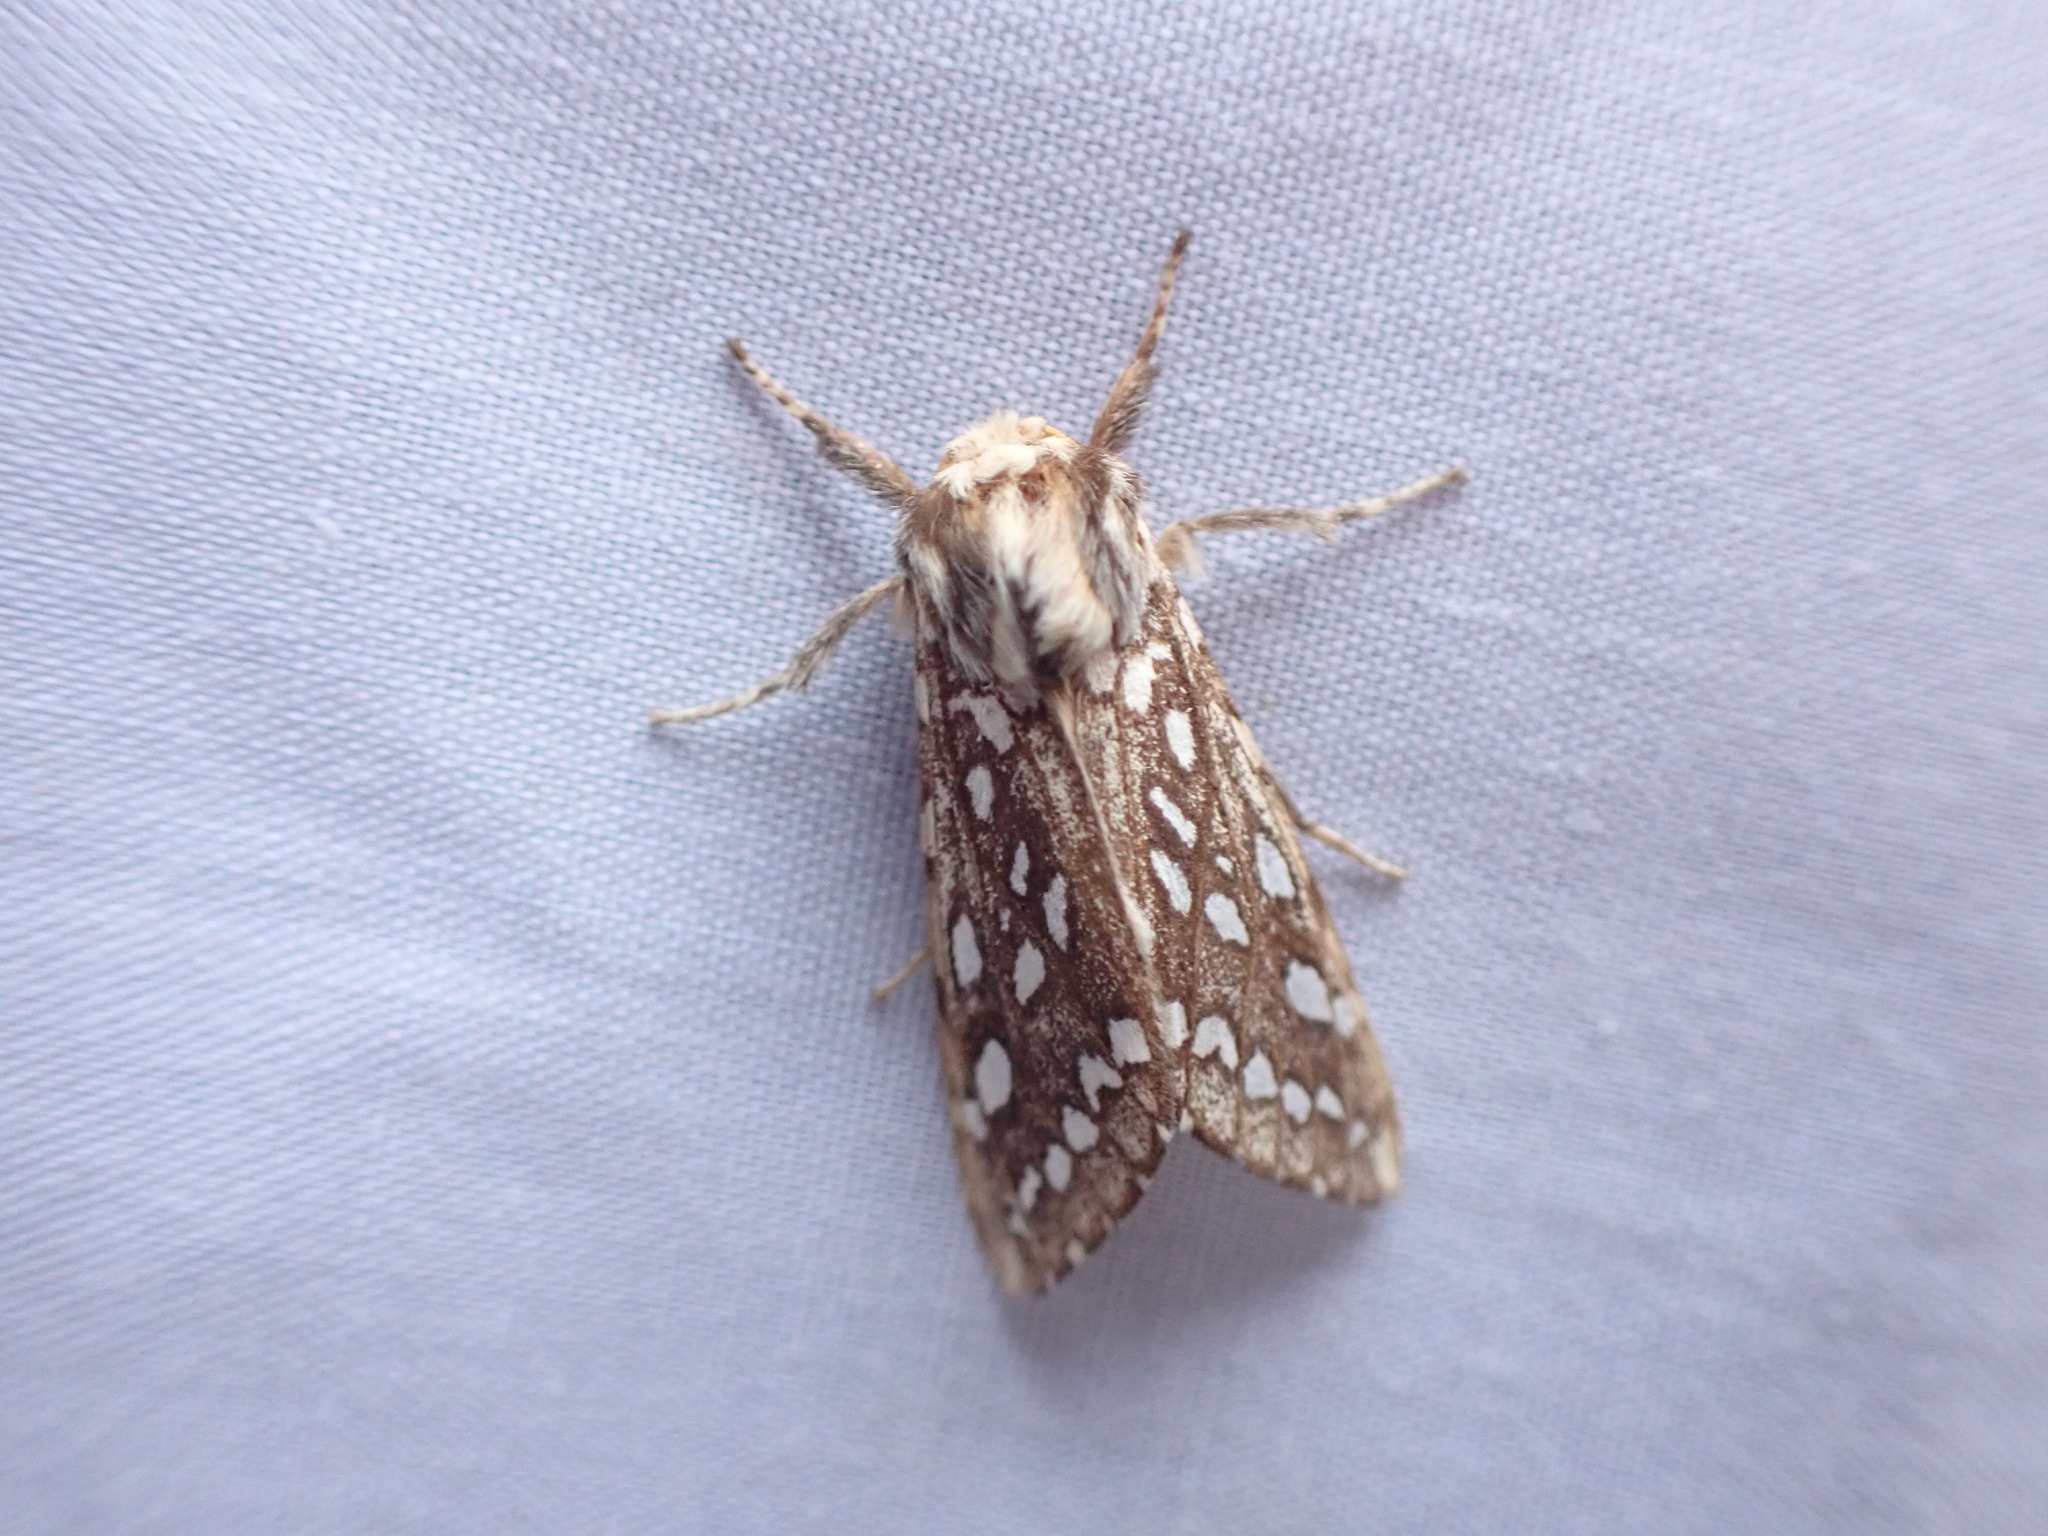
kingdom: Animalia
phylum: Arthropoda
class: Insecta
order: Lepidoptera
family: Erebidae
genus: Lophocampa
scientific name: Lophocampa argentata
